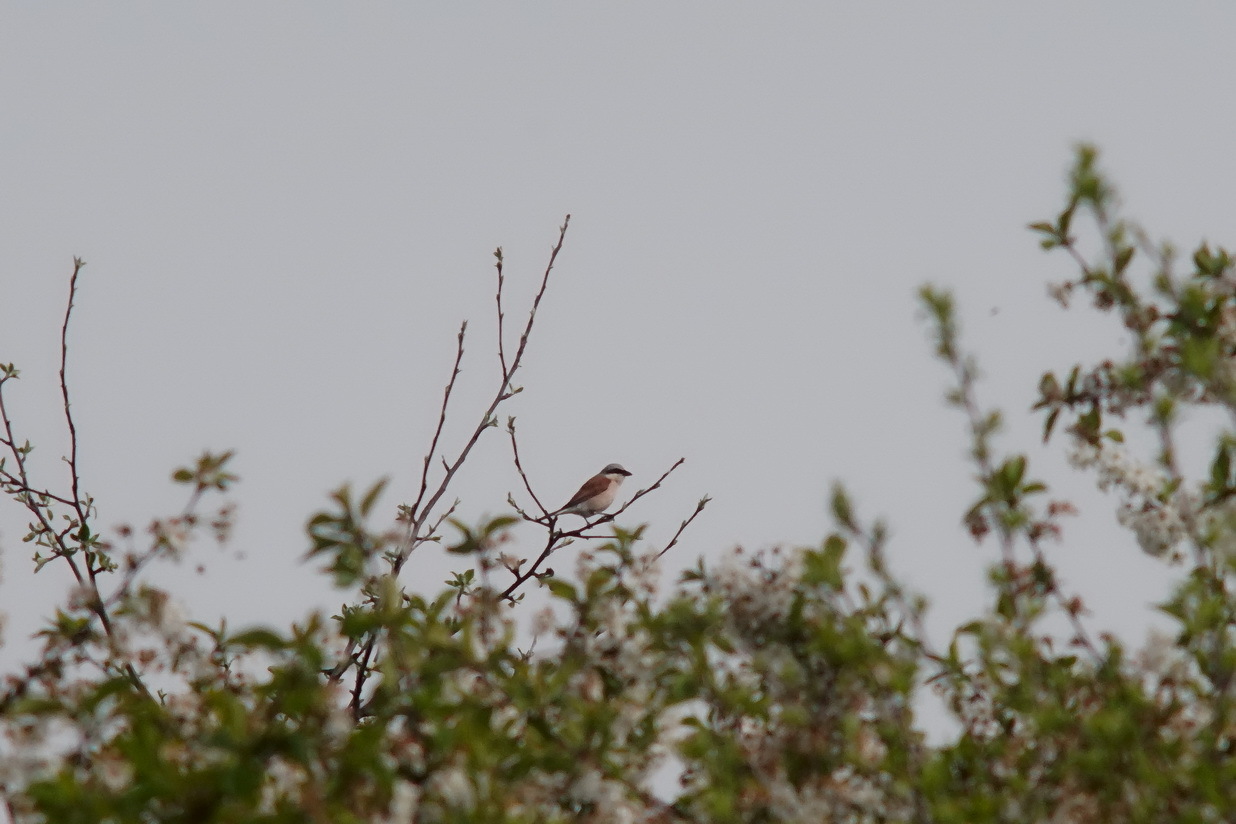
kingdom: Animalia
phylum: Chordata
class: Aves
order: Passeriformes
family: Laniidae
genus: Lanius
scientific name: Lanius collurio
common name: Red-backed shrike
